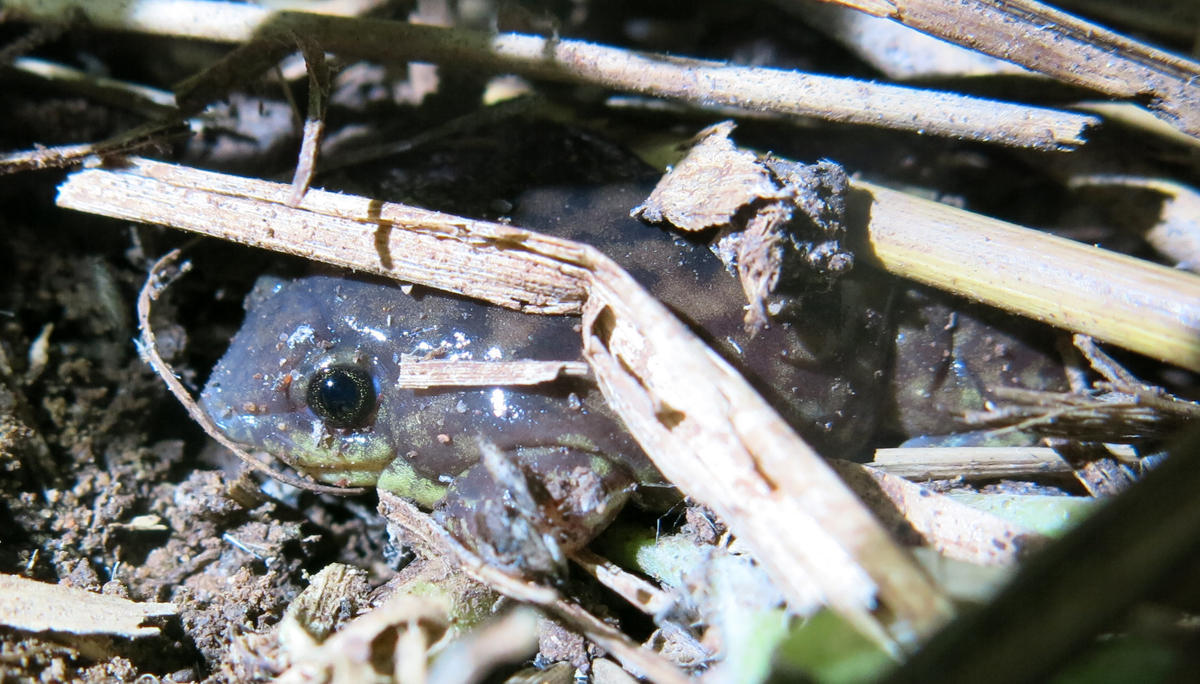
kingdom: Animalia
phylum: Chordata
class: Amphibia
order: Anura
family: Hemisotidae
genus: Hemisus
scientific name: Hemisus marmoratus
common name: Mottled shovel-nosed frog
